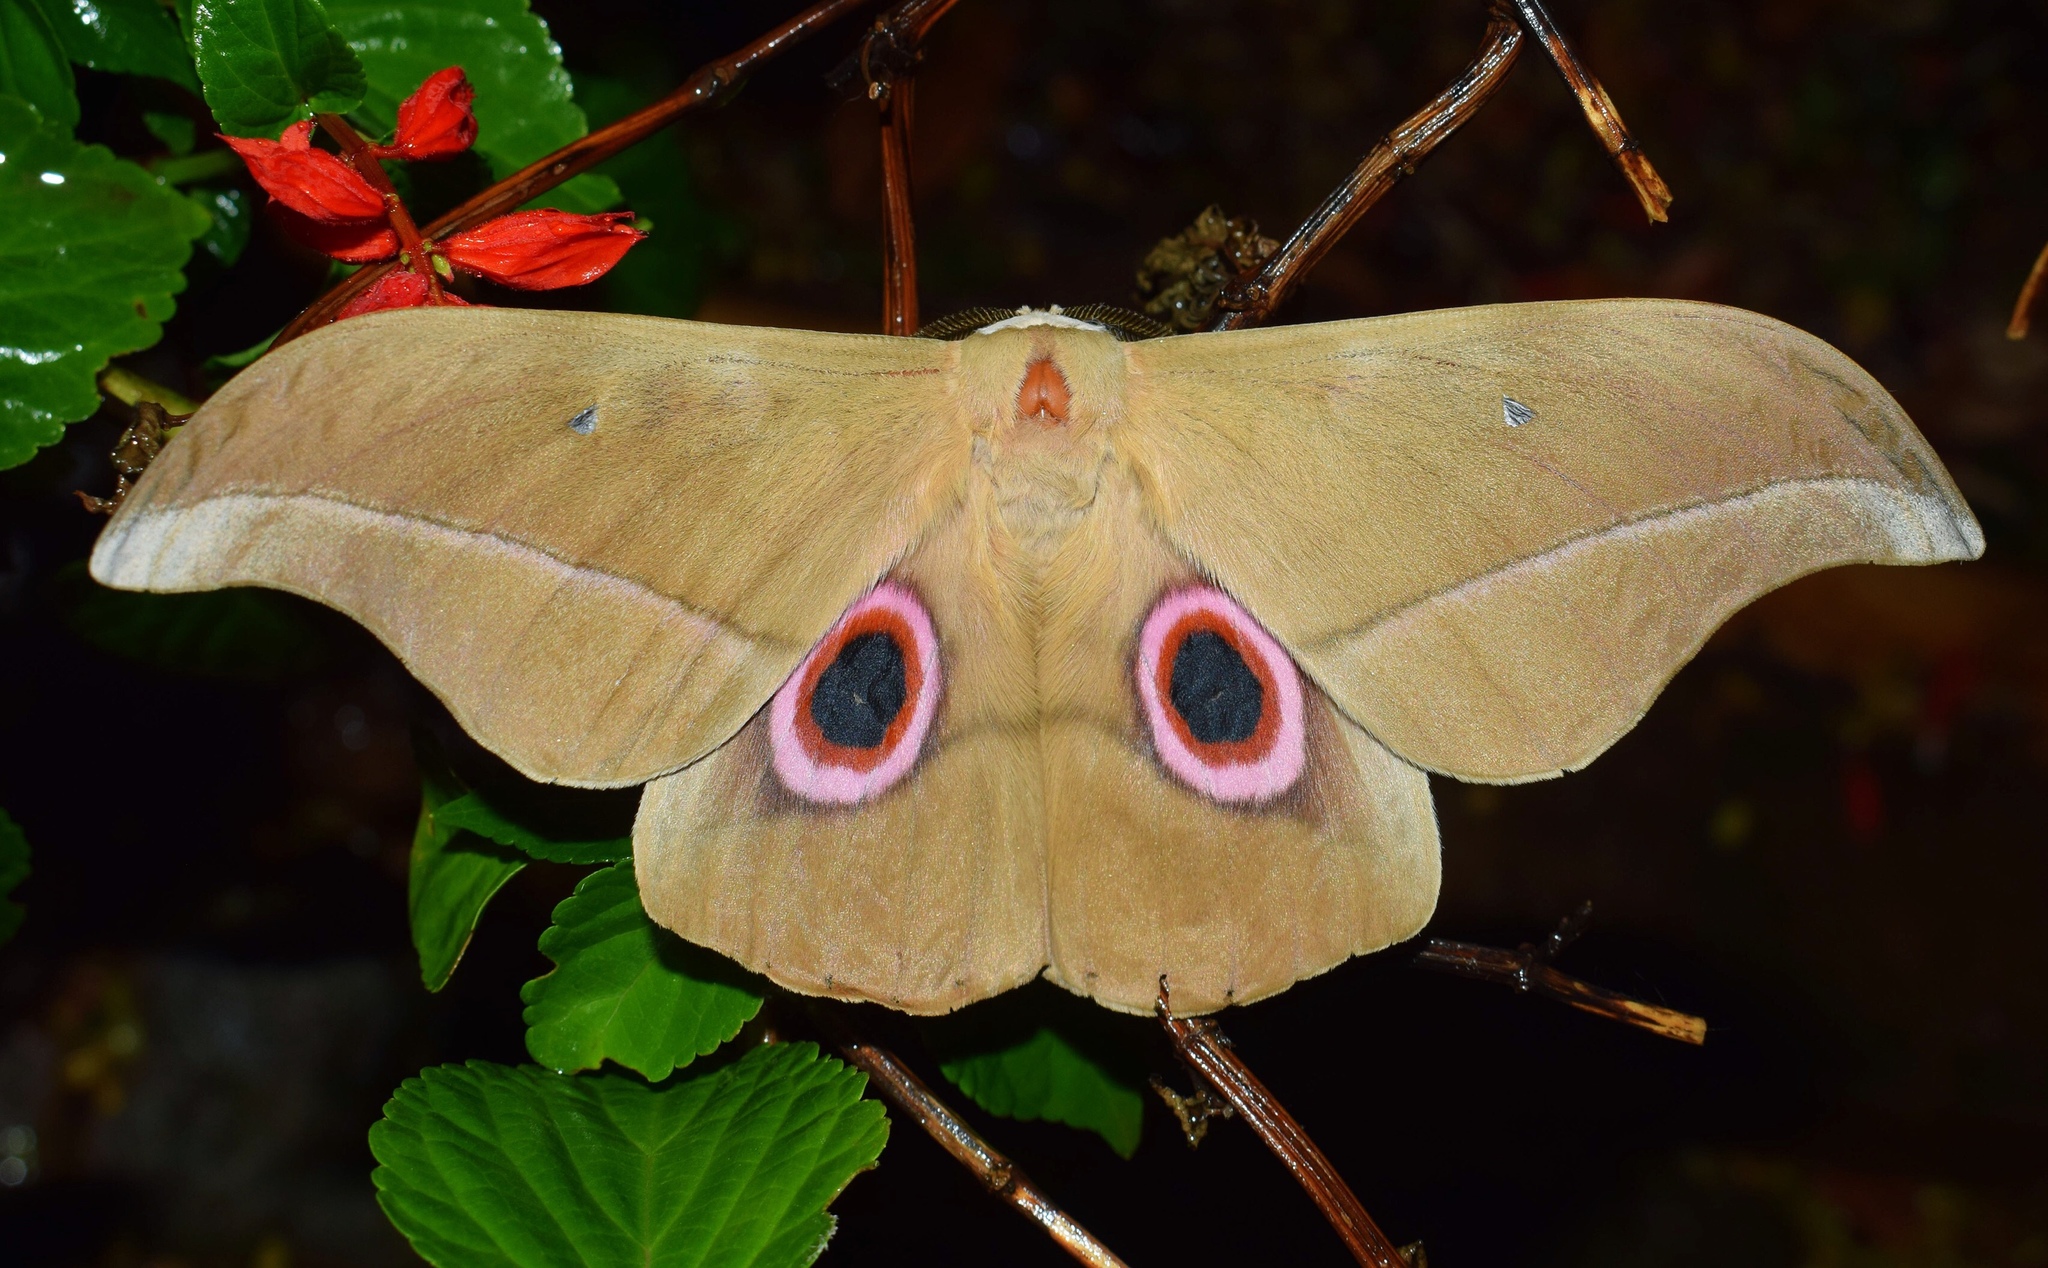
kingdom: Animalia
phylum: Arthropoda
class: Insecta
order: Lepidoptera
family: Saturniidae
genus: Lobobunaea
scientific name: Lobobunaea saturnus
